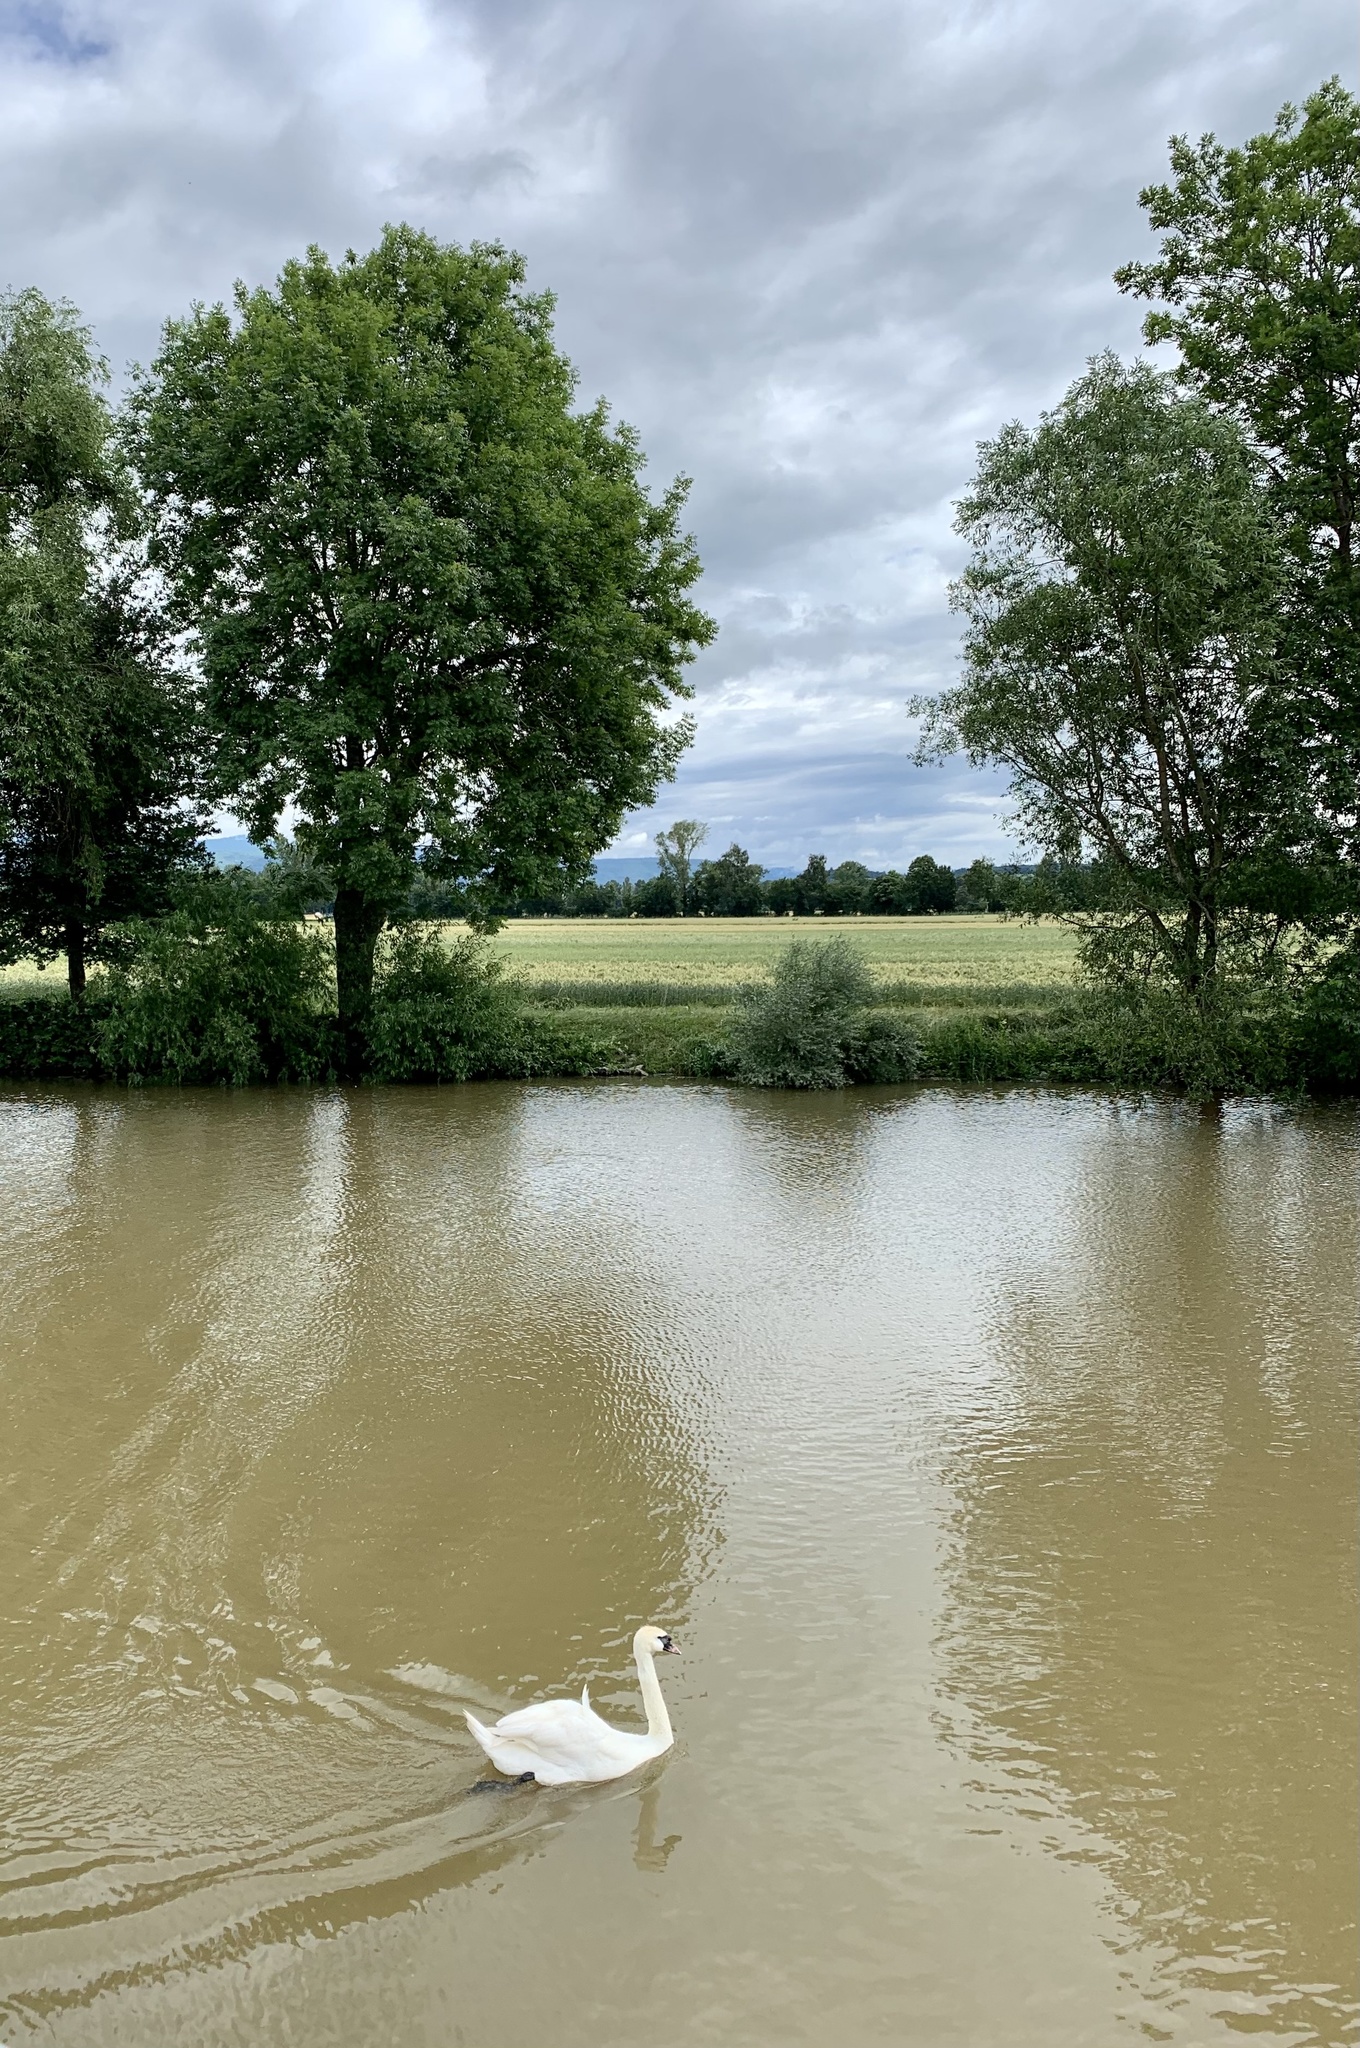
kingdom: Animalia
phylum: Chordata
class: Aves
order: Anseriformes
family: Anatidae
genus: Cygnus
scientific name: Cygnus olor
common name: Mute swan
